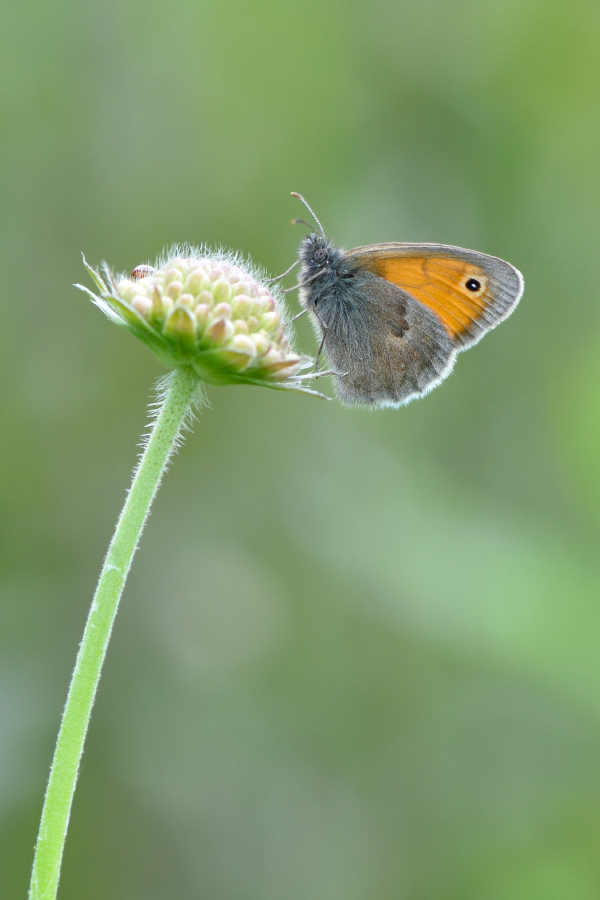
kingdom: Animalia
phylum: Arthropoda
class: Insecta
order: Lepidoptera
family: Nymphalidae
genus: Coenonympha
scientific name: Coenonympha pamphilus
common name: Small heath
